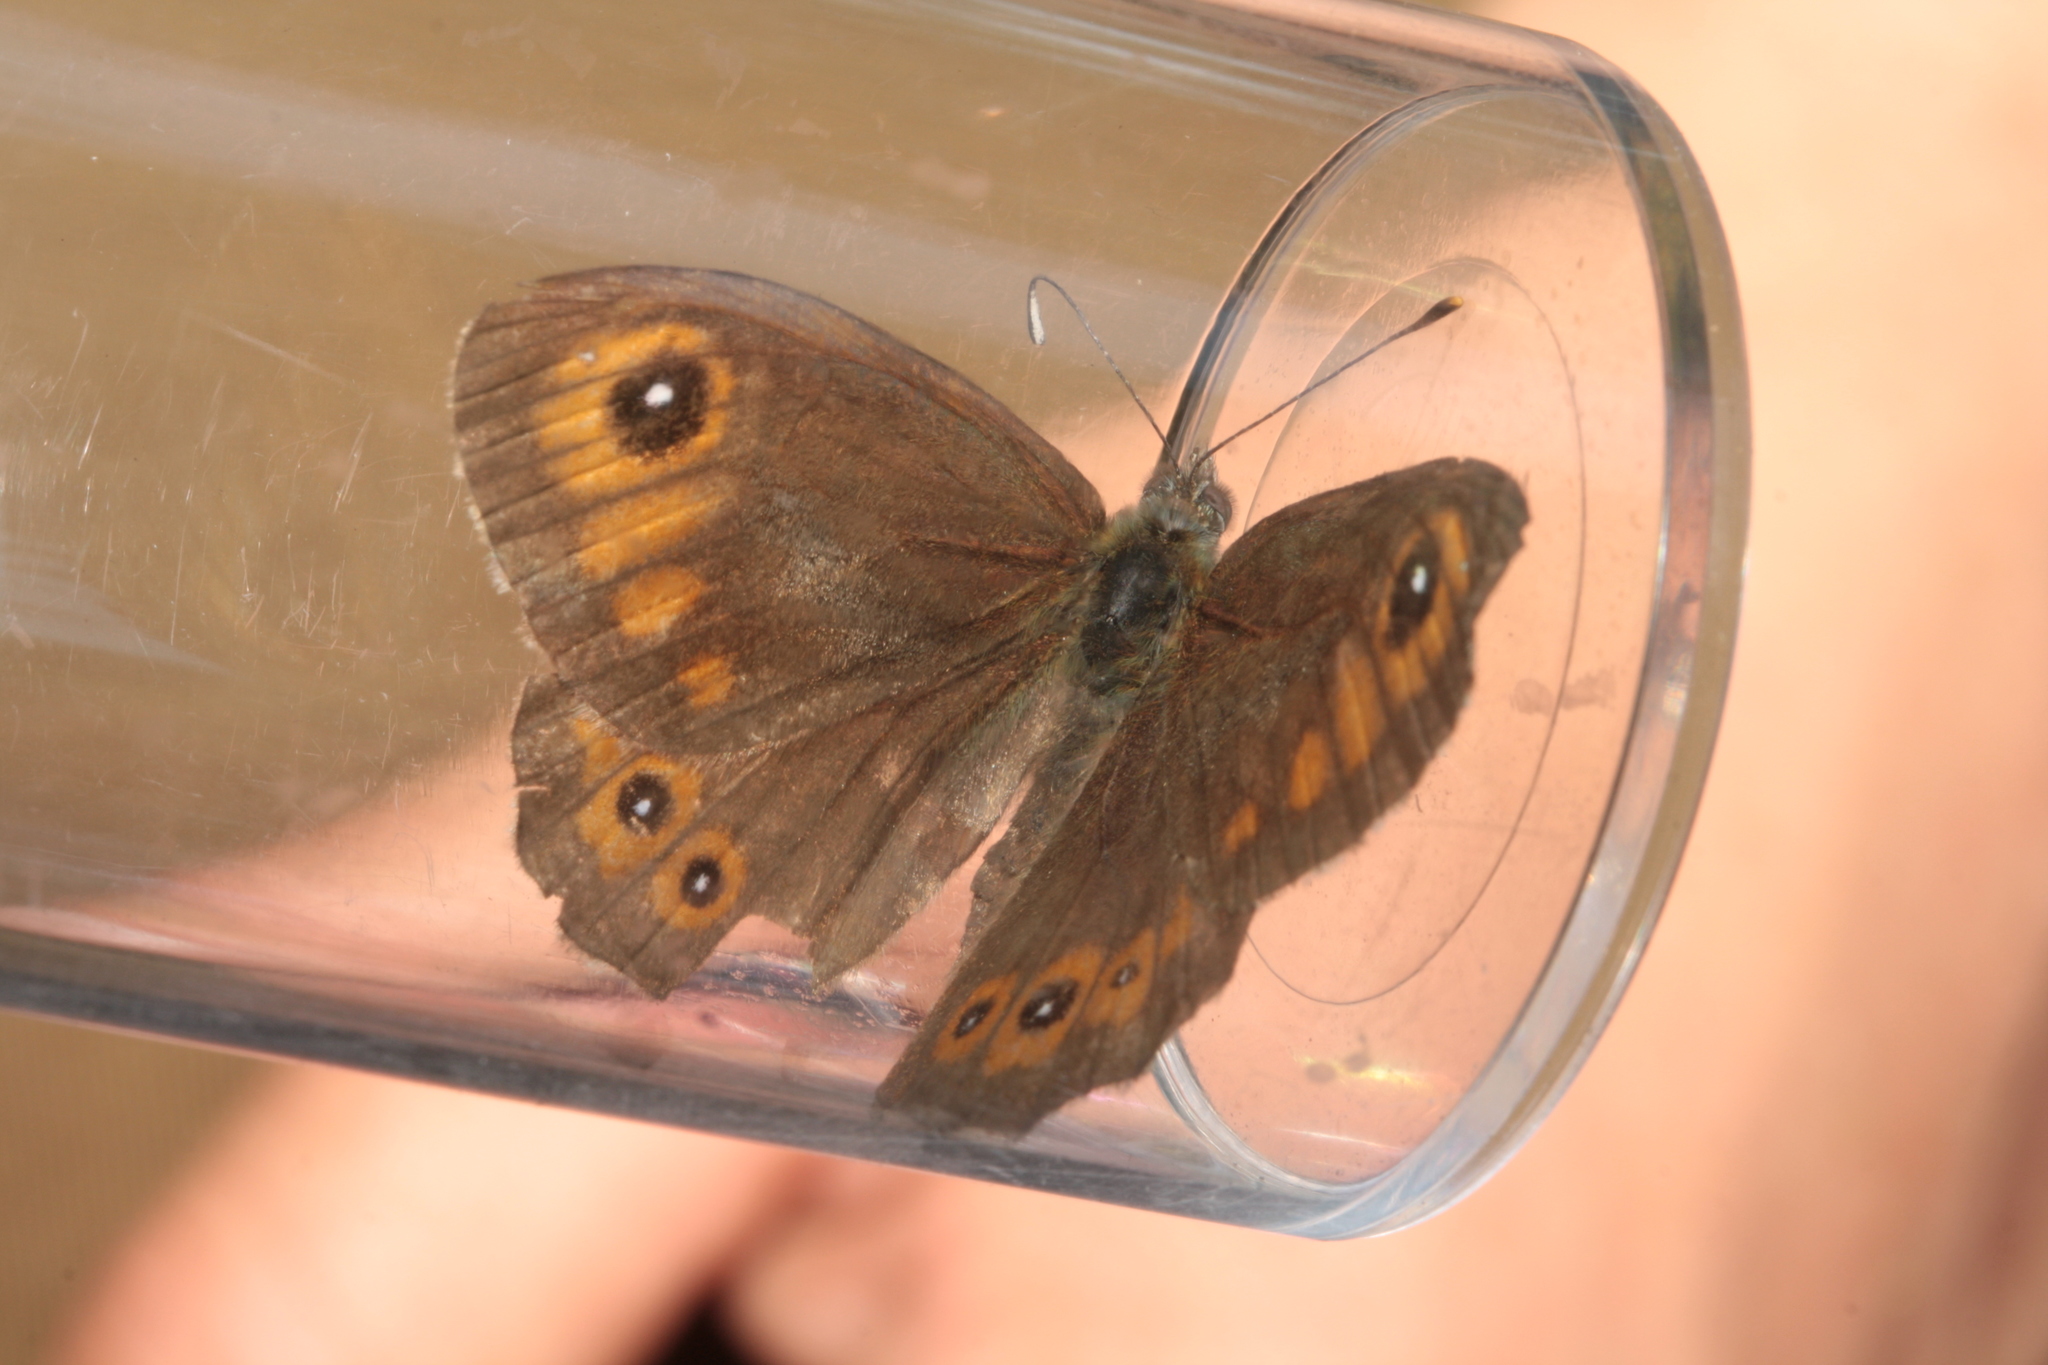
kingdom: Animalia
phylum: Arthropoda
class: Insecta
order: Lepidoptera
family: Nymphalidae
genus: Pararge
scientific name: Pararge Lasiommata maera
